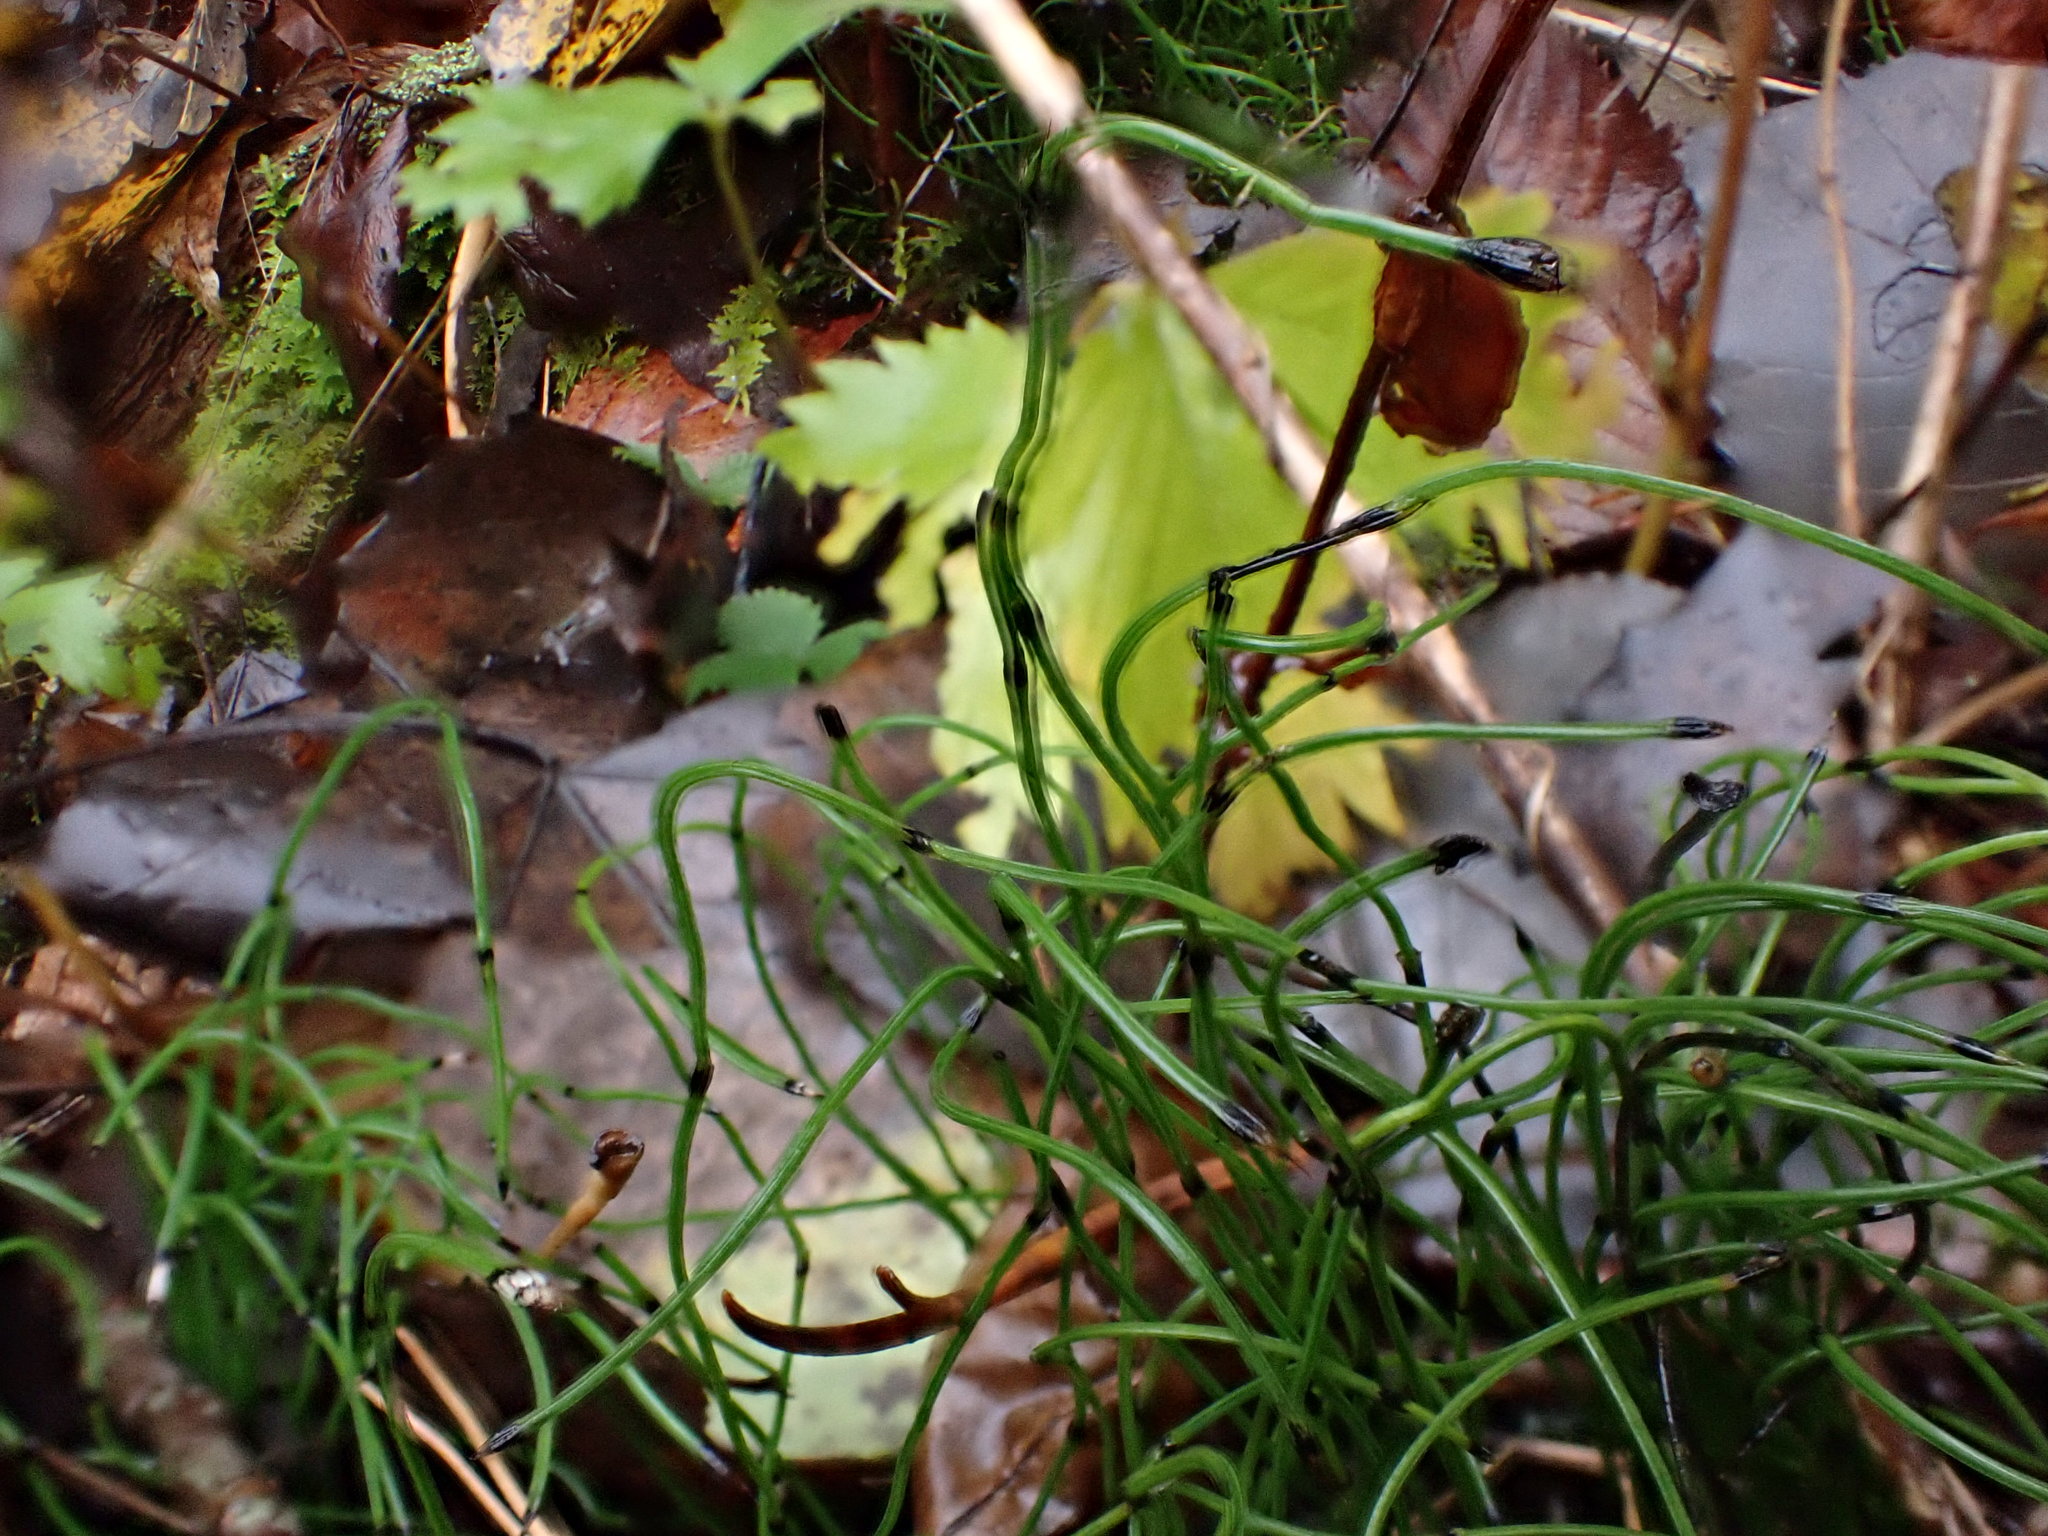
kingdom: Plantae
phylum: Tracheophyta
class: Polypodiopsida
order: Equisetales
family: Equisetaceae
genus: Equisetum
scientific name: Equisetum scirpoides
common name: Delicate horsetail
